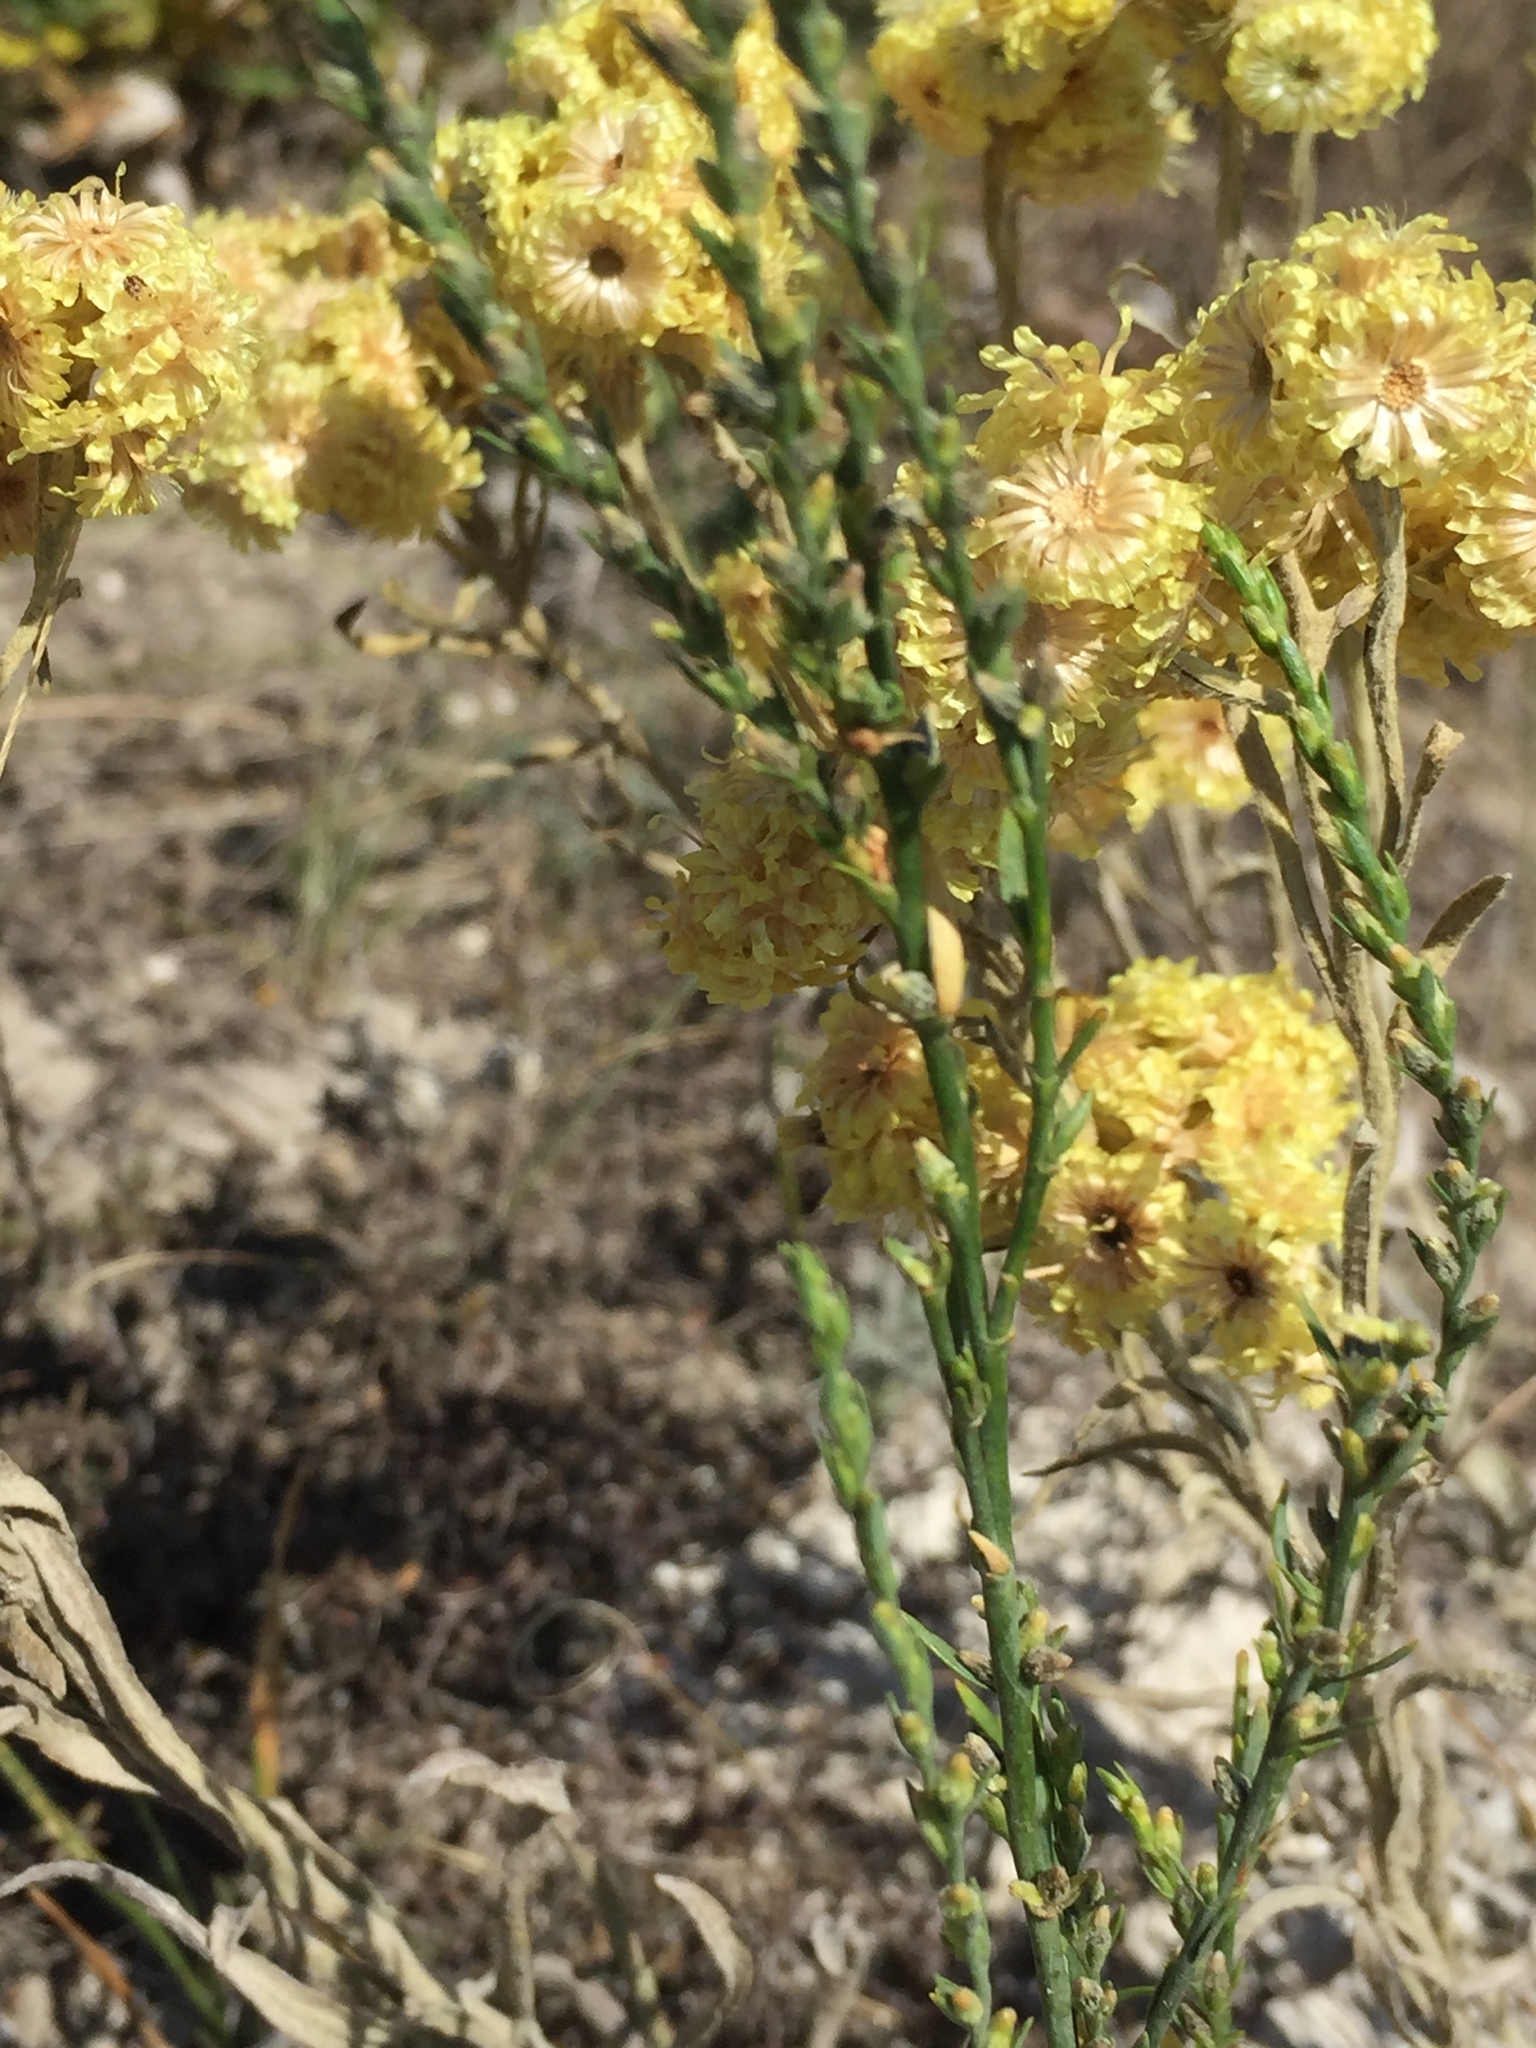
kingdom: Plantae
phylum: Tracheophyta
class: Magnoliopsida
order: Asterales
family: Asteraceae
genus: Helichrysum
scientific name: Helichrysum arenarium
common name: Strawflower
